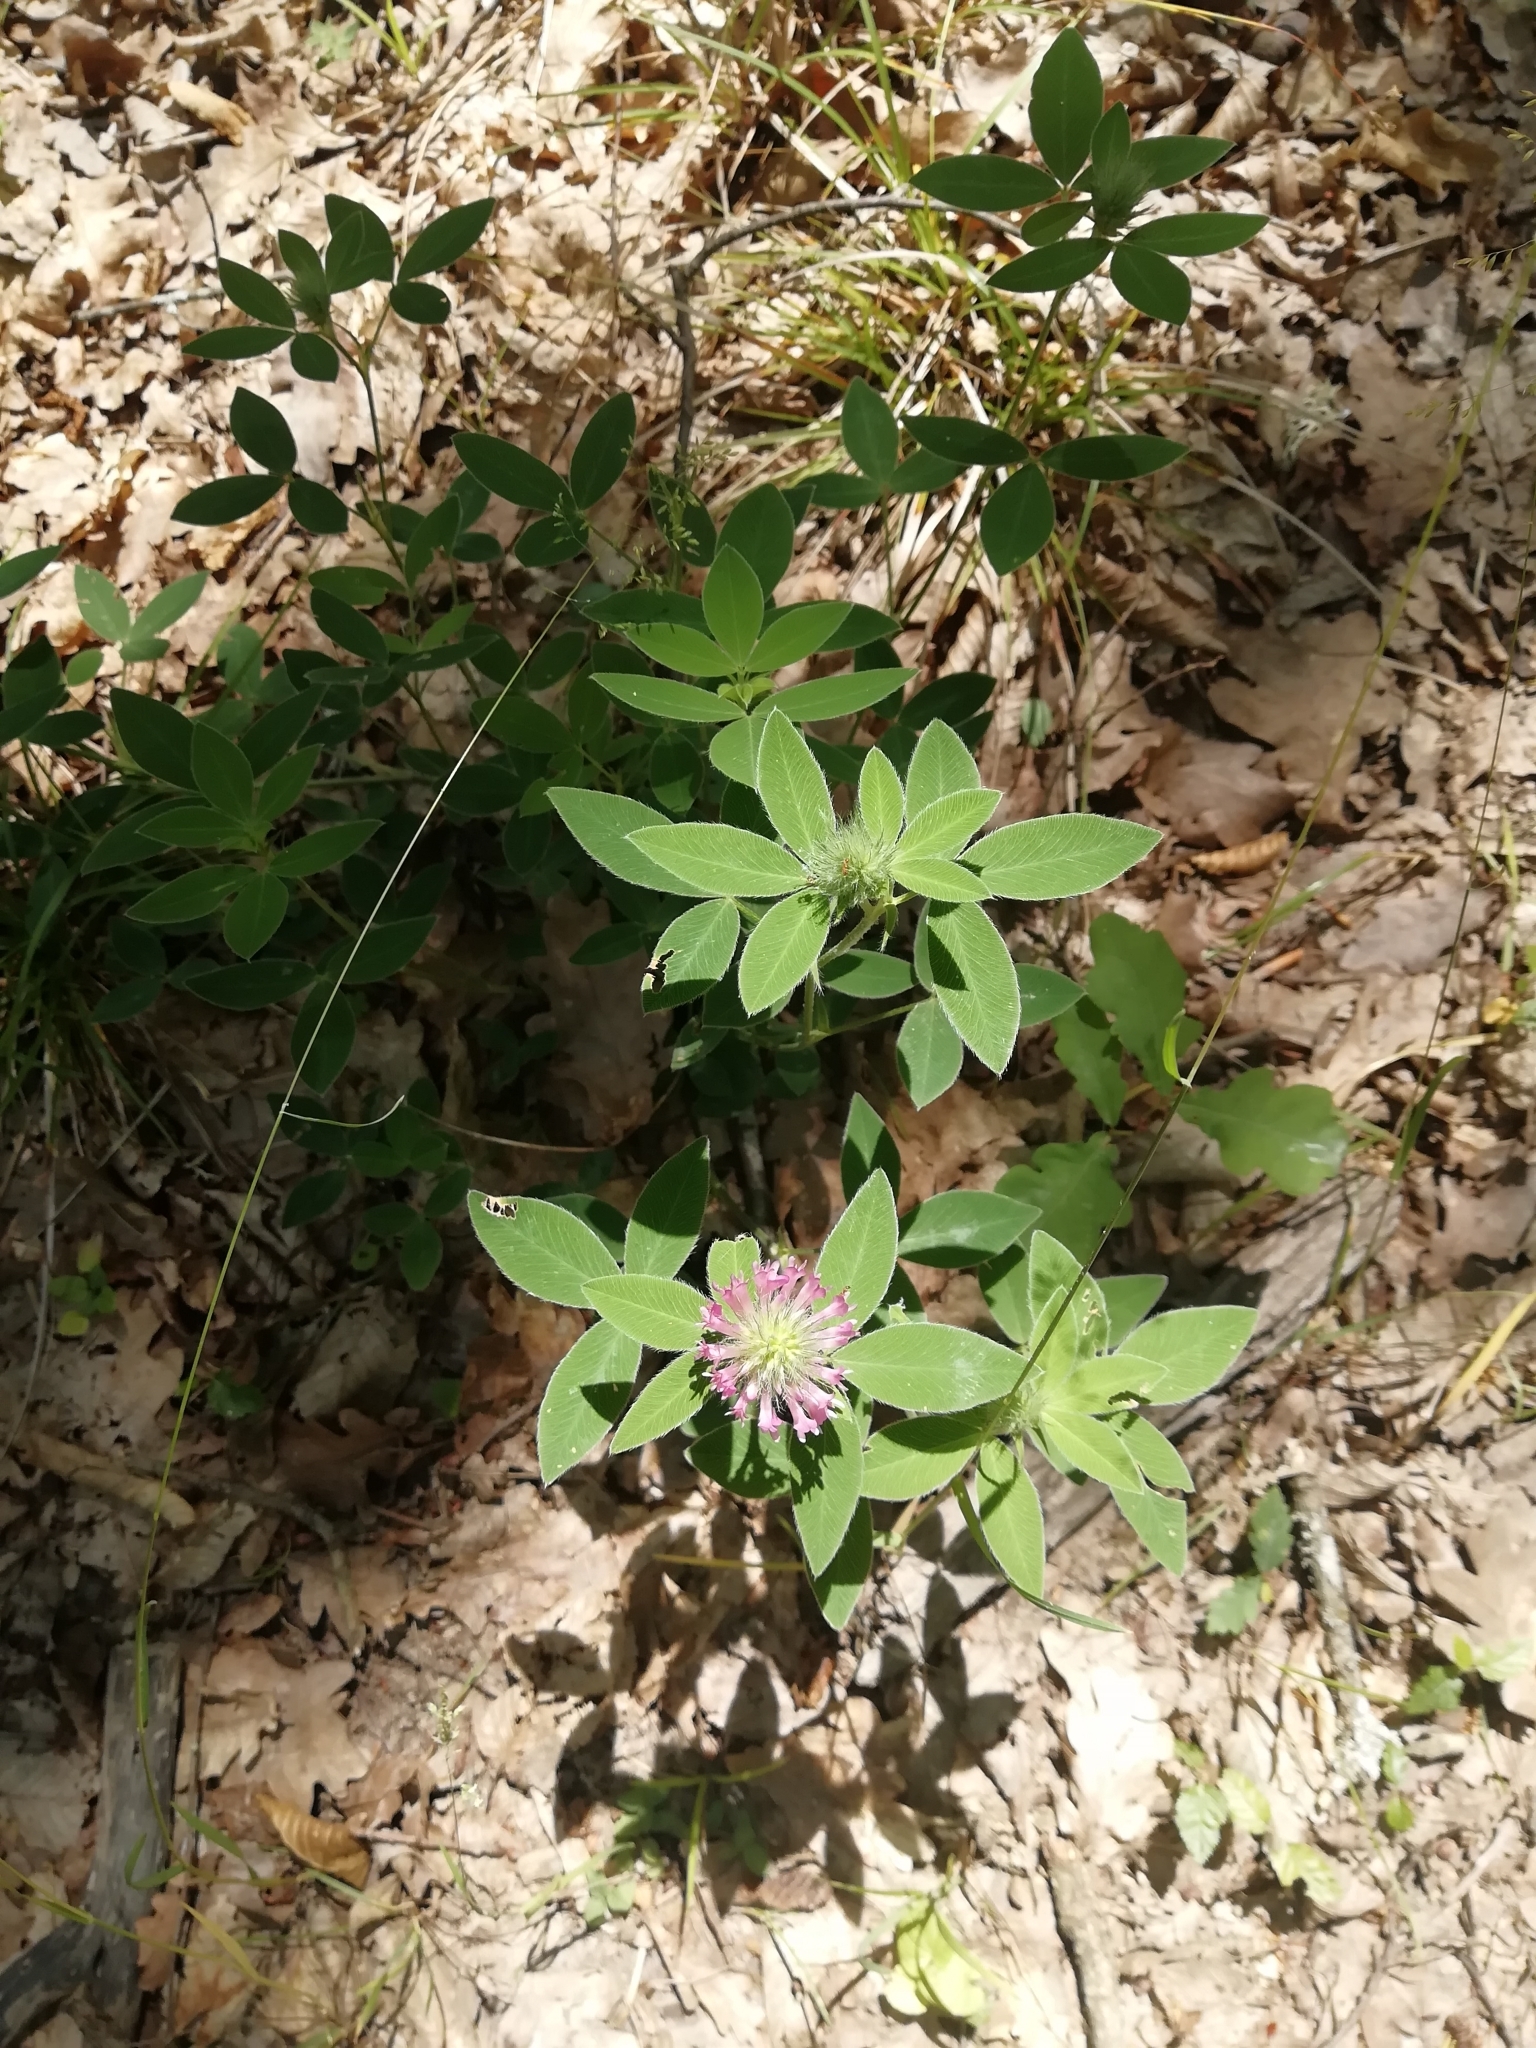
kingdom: Plantae
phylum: Tracheophyta
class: Magnoliopsida
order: Fabales
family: Fabaceae
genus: Trifolium
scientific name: Trifolium medium
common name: Zigzag clover
